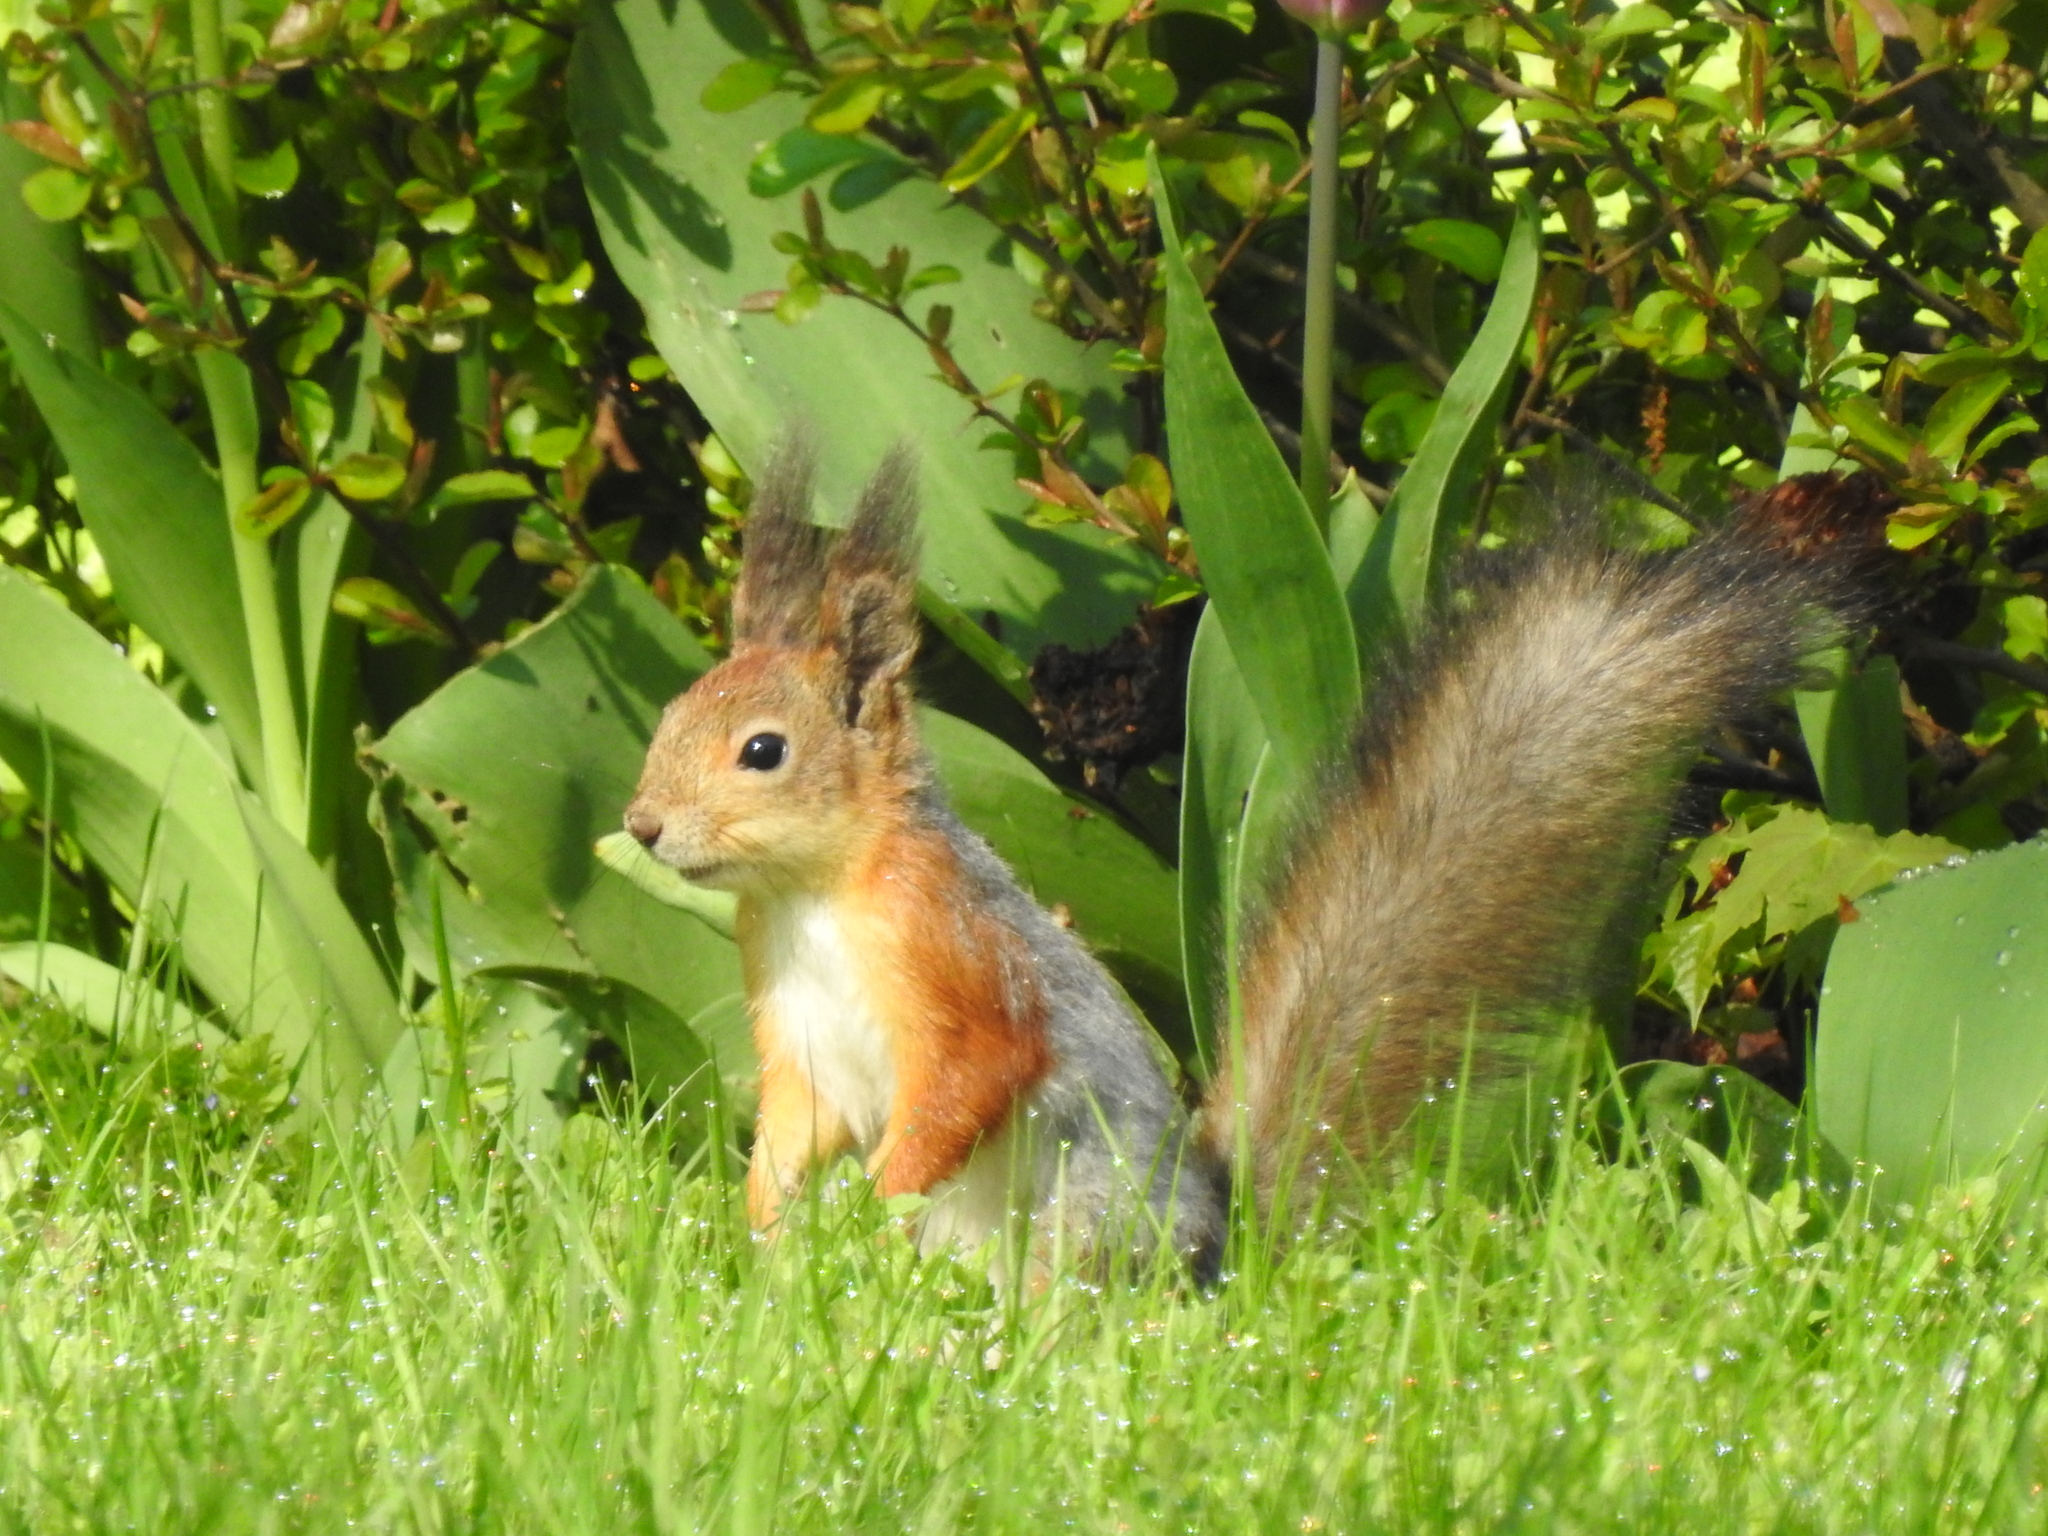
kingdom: Animalia
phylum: Chordata
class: Mammalia
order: Rodentia
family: Sciuridae
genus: Sciurus
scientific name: Sciurus vulgaris
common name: Eurasian red squirrel
